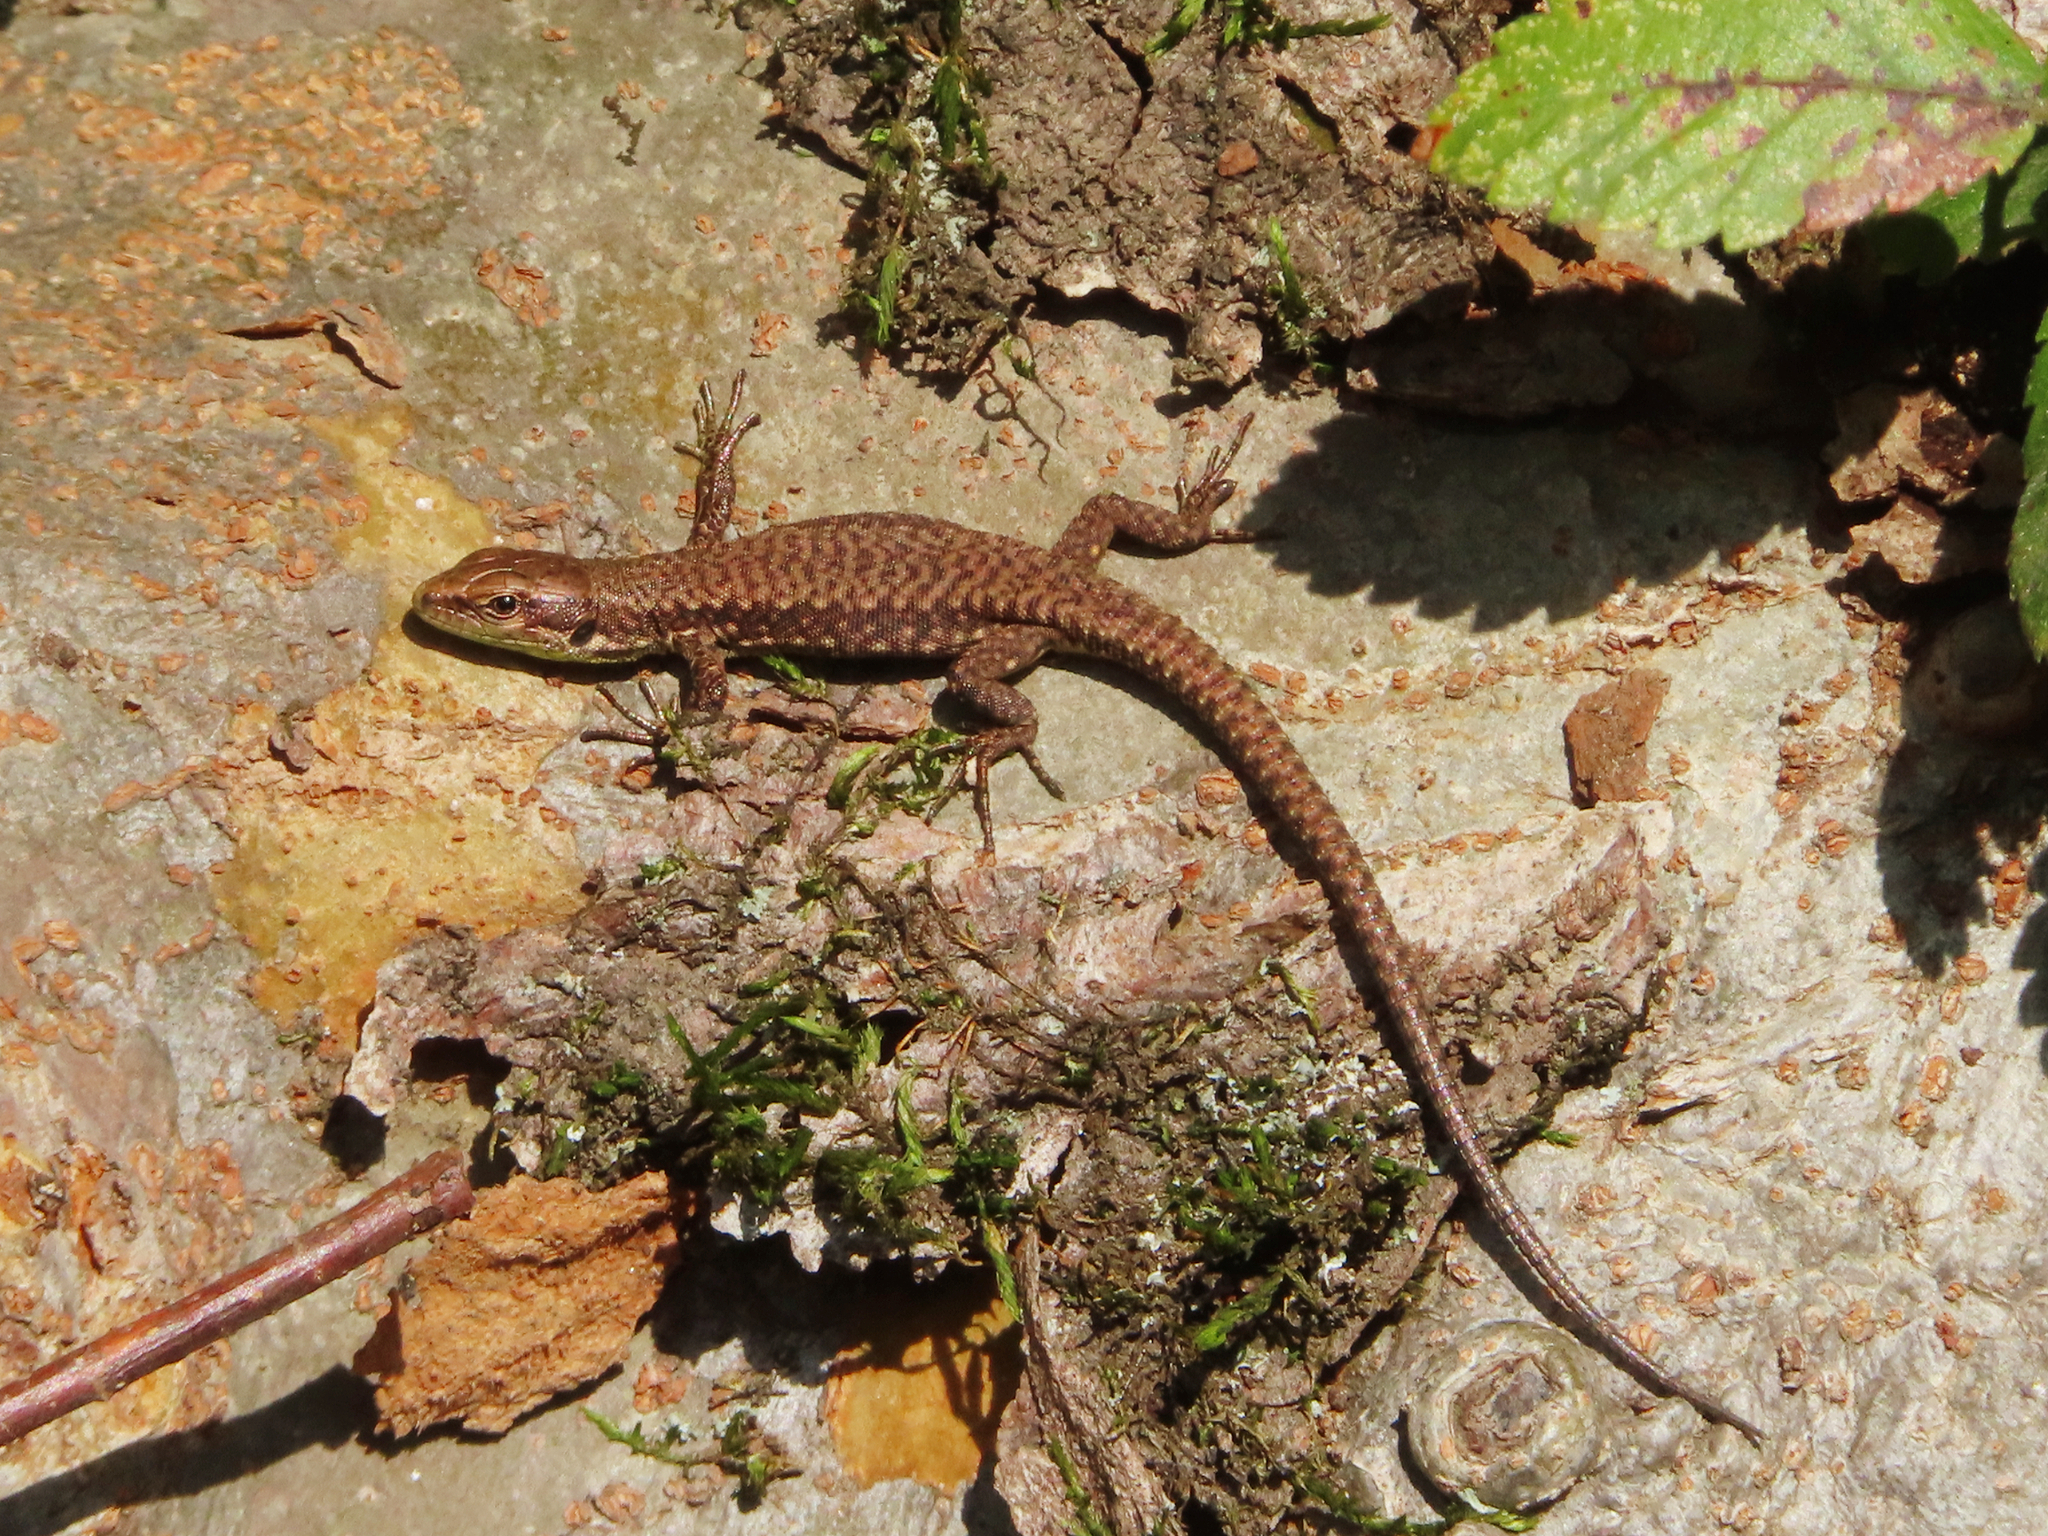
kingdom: Animalia
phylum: Chordata
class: Squamata
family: Lacertidae
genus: Darevskia
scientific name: Darevskia chlorogaster
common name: Green-bellied lizard
